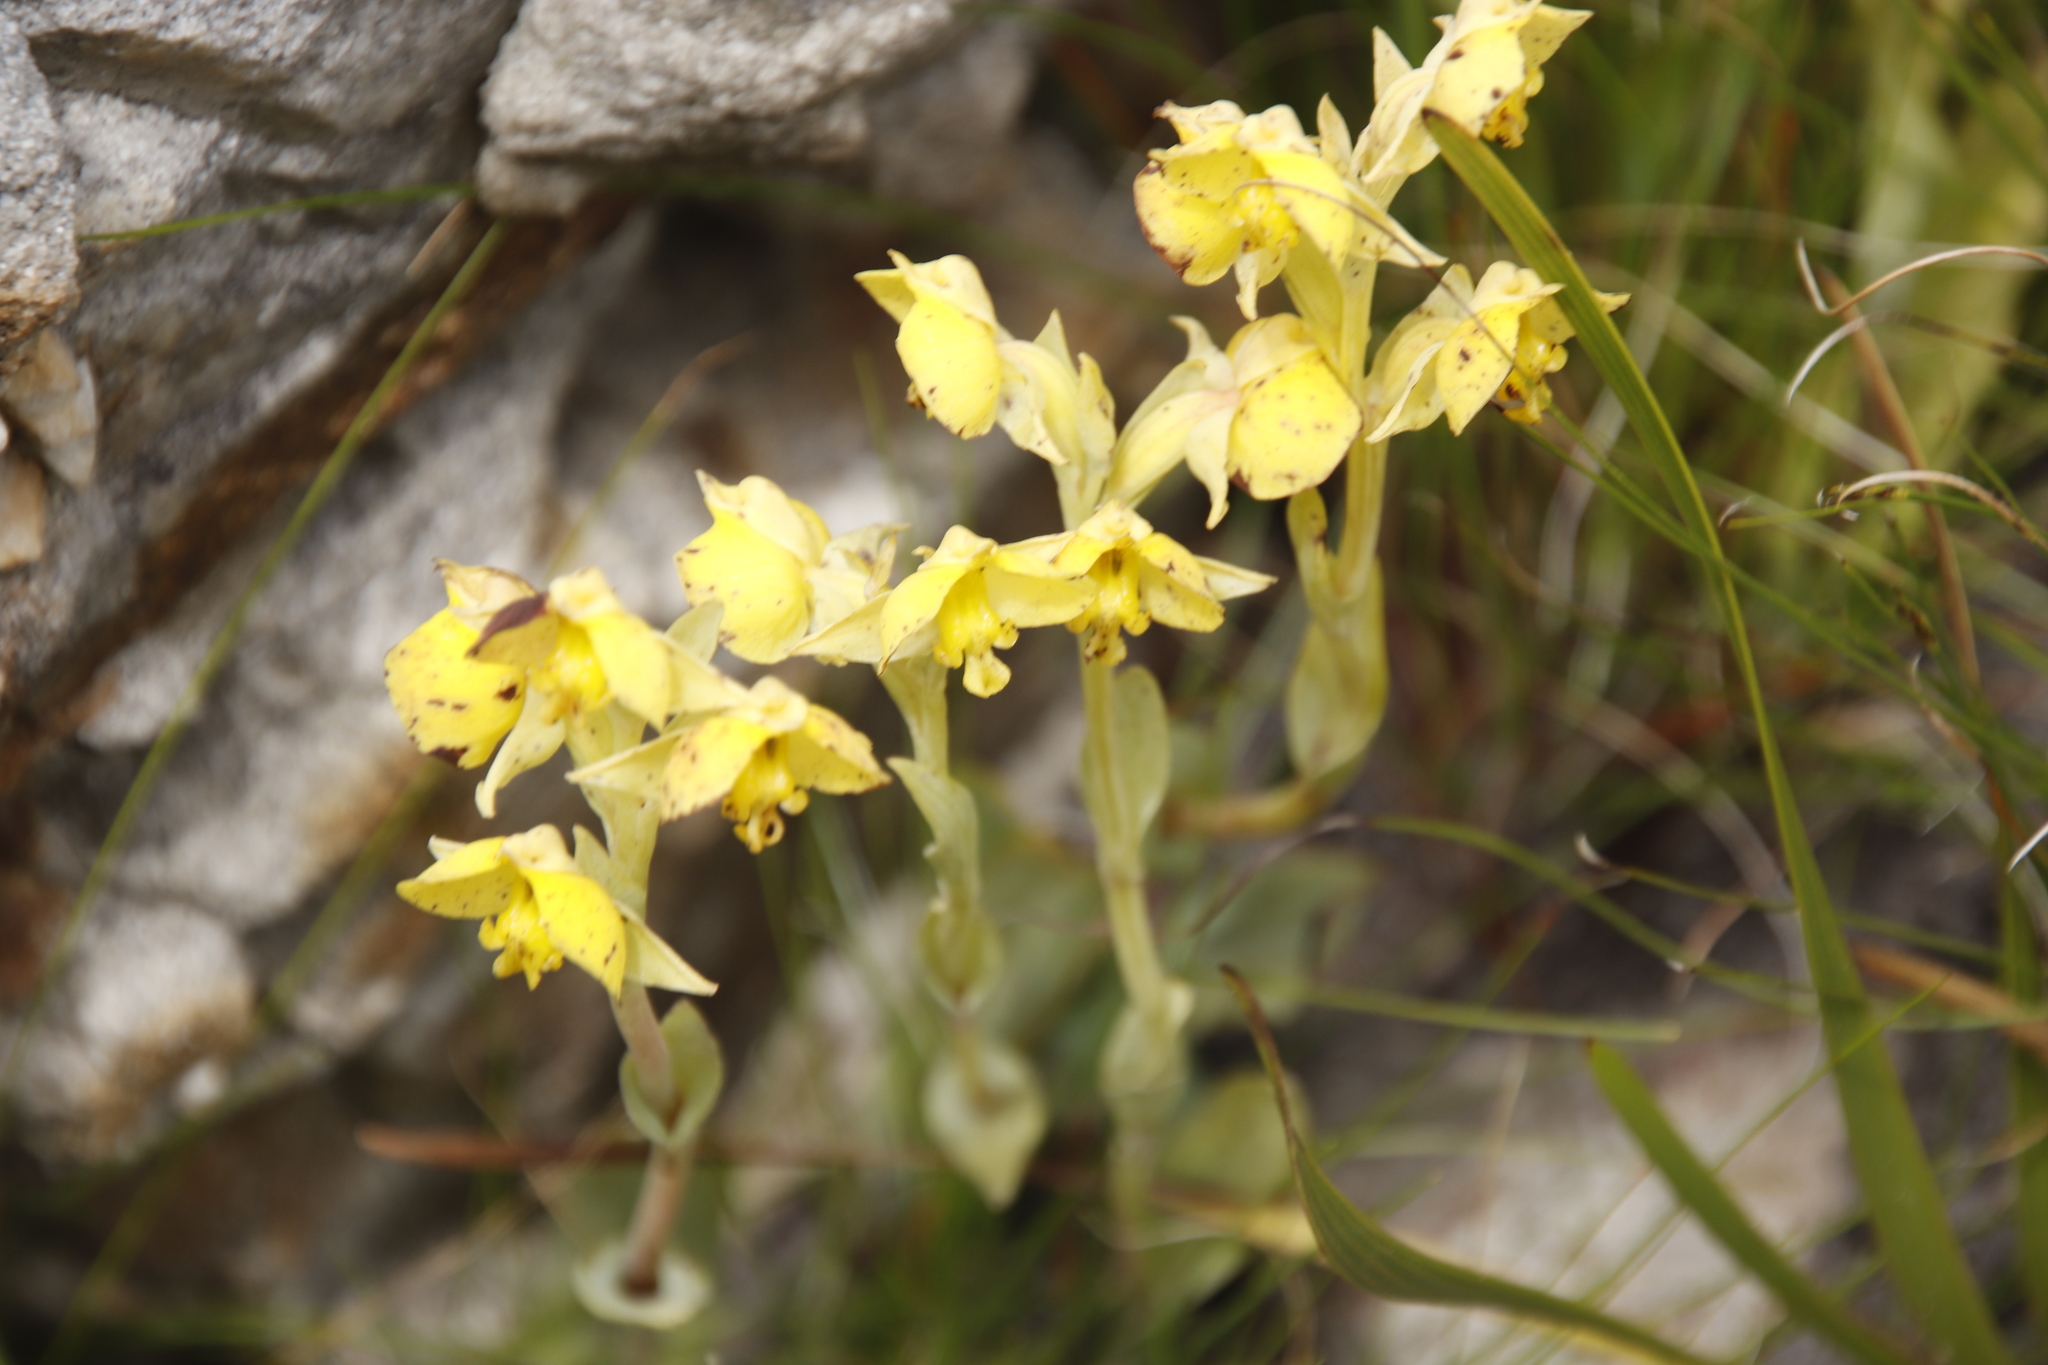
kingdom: Plantae
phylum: Tracheophyta
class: Liliopsida
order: Asparagales
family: Orchidaceae
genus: Pterygodium
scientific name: Pterygodium acutifolium
